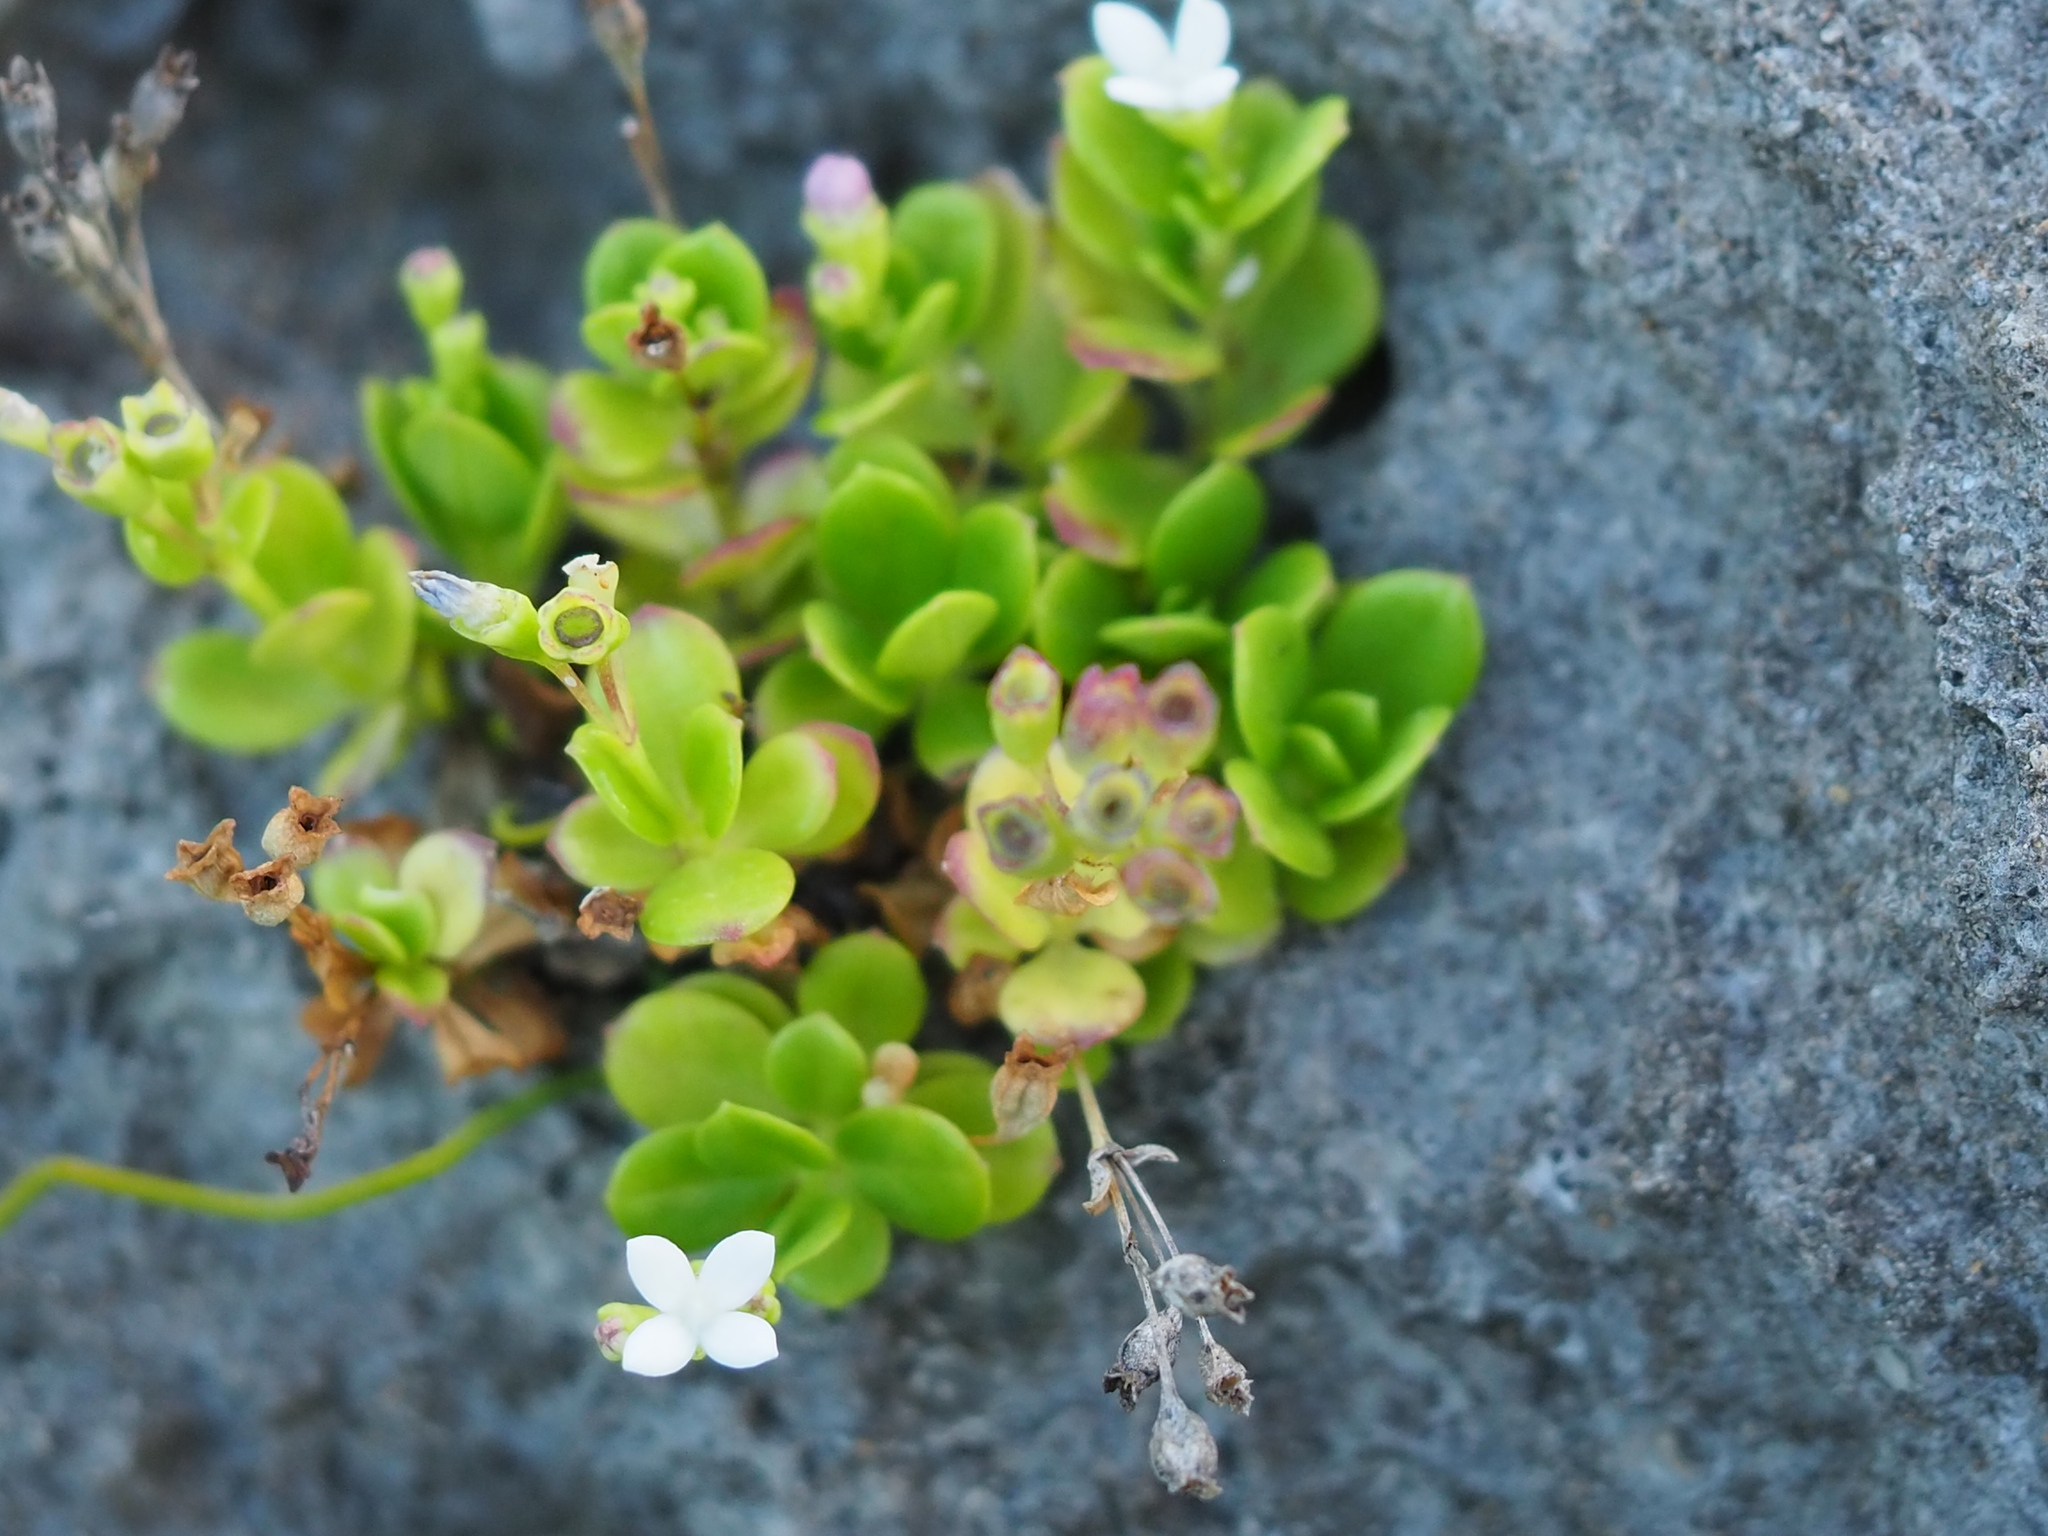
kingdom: Plantae
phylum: Tracheophyta
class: Magnoliopsida
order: Gentianales
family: Rubiaceae
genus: Leptopetalum
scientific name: Leptopetalum strigulosum
